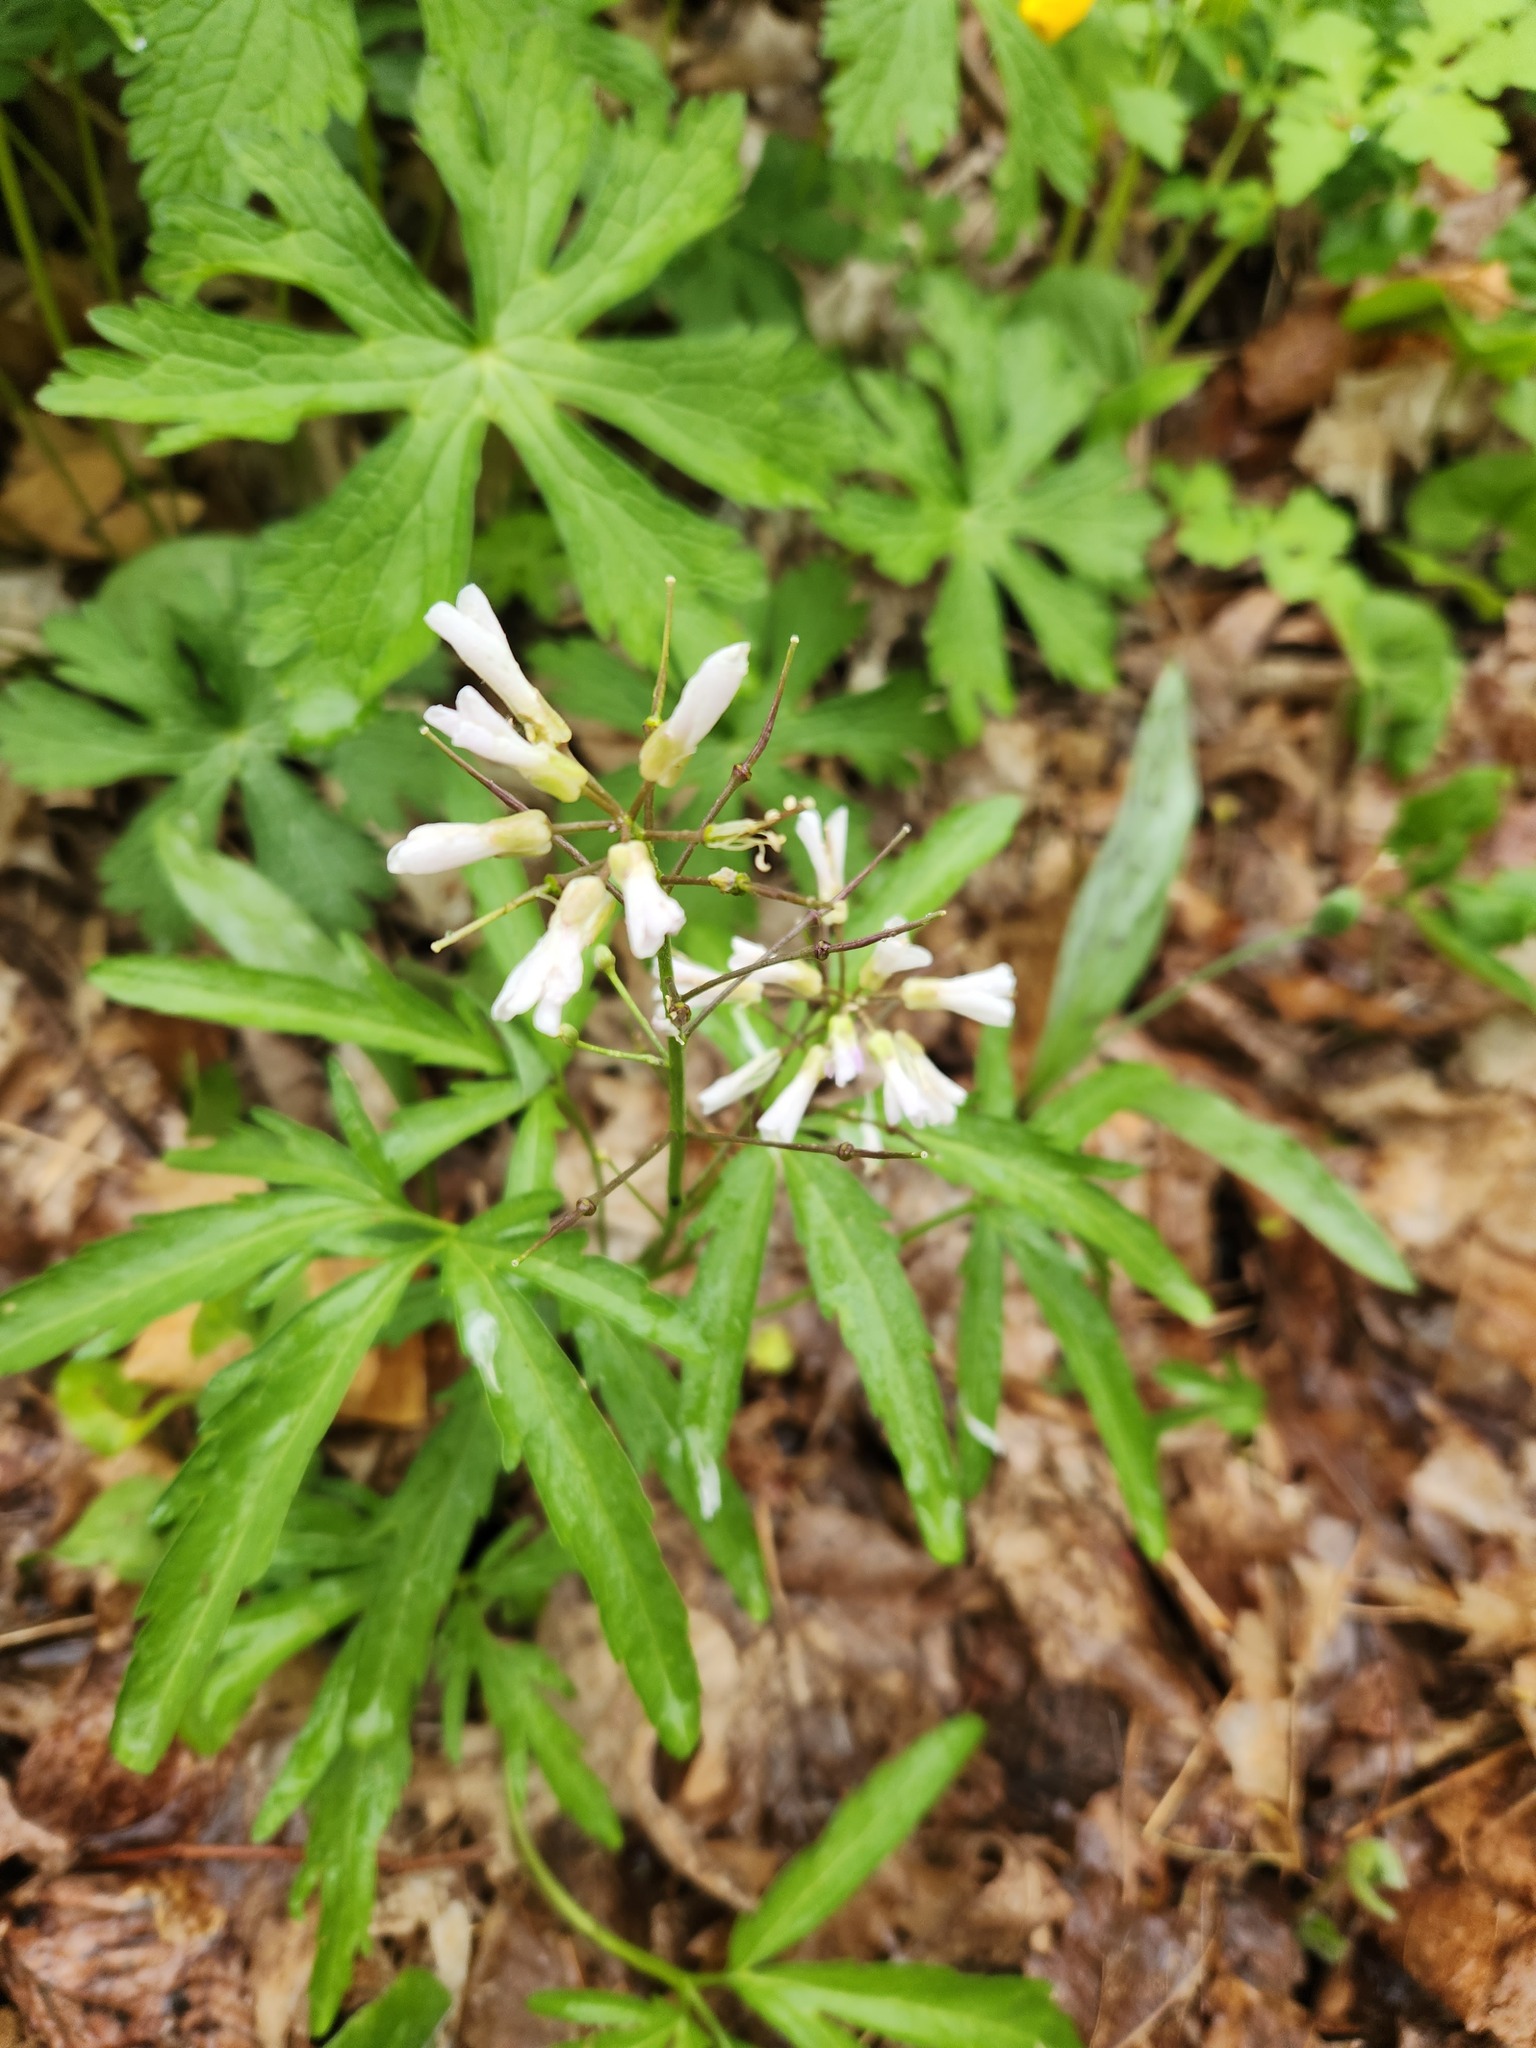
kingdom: Plantae
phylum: Tracheophyta
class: Magnoliopsida
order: Brassicales
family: Brassicaceae
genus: Cardamine
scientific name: Cardamine concatenata
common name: Cut-leaf toothcup
